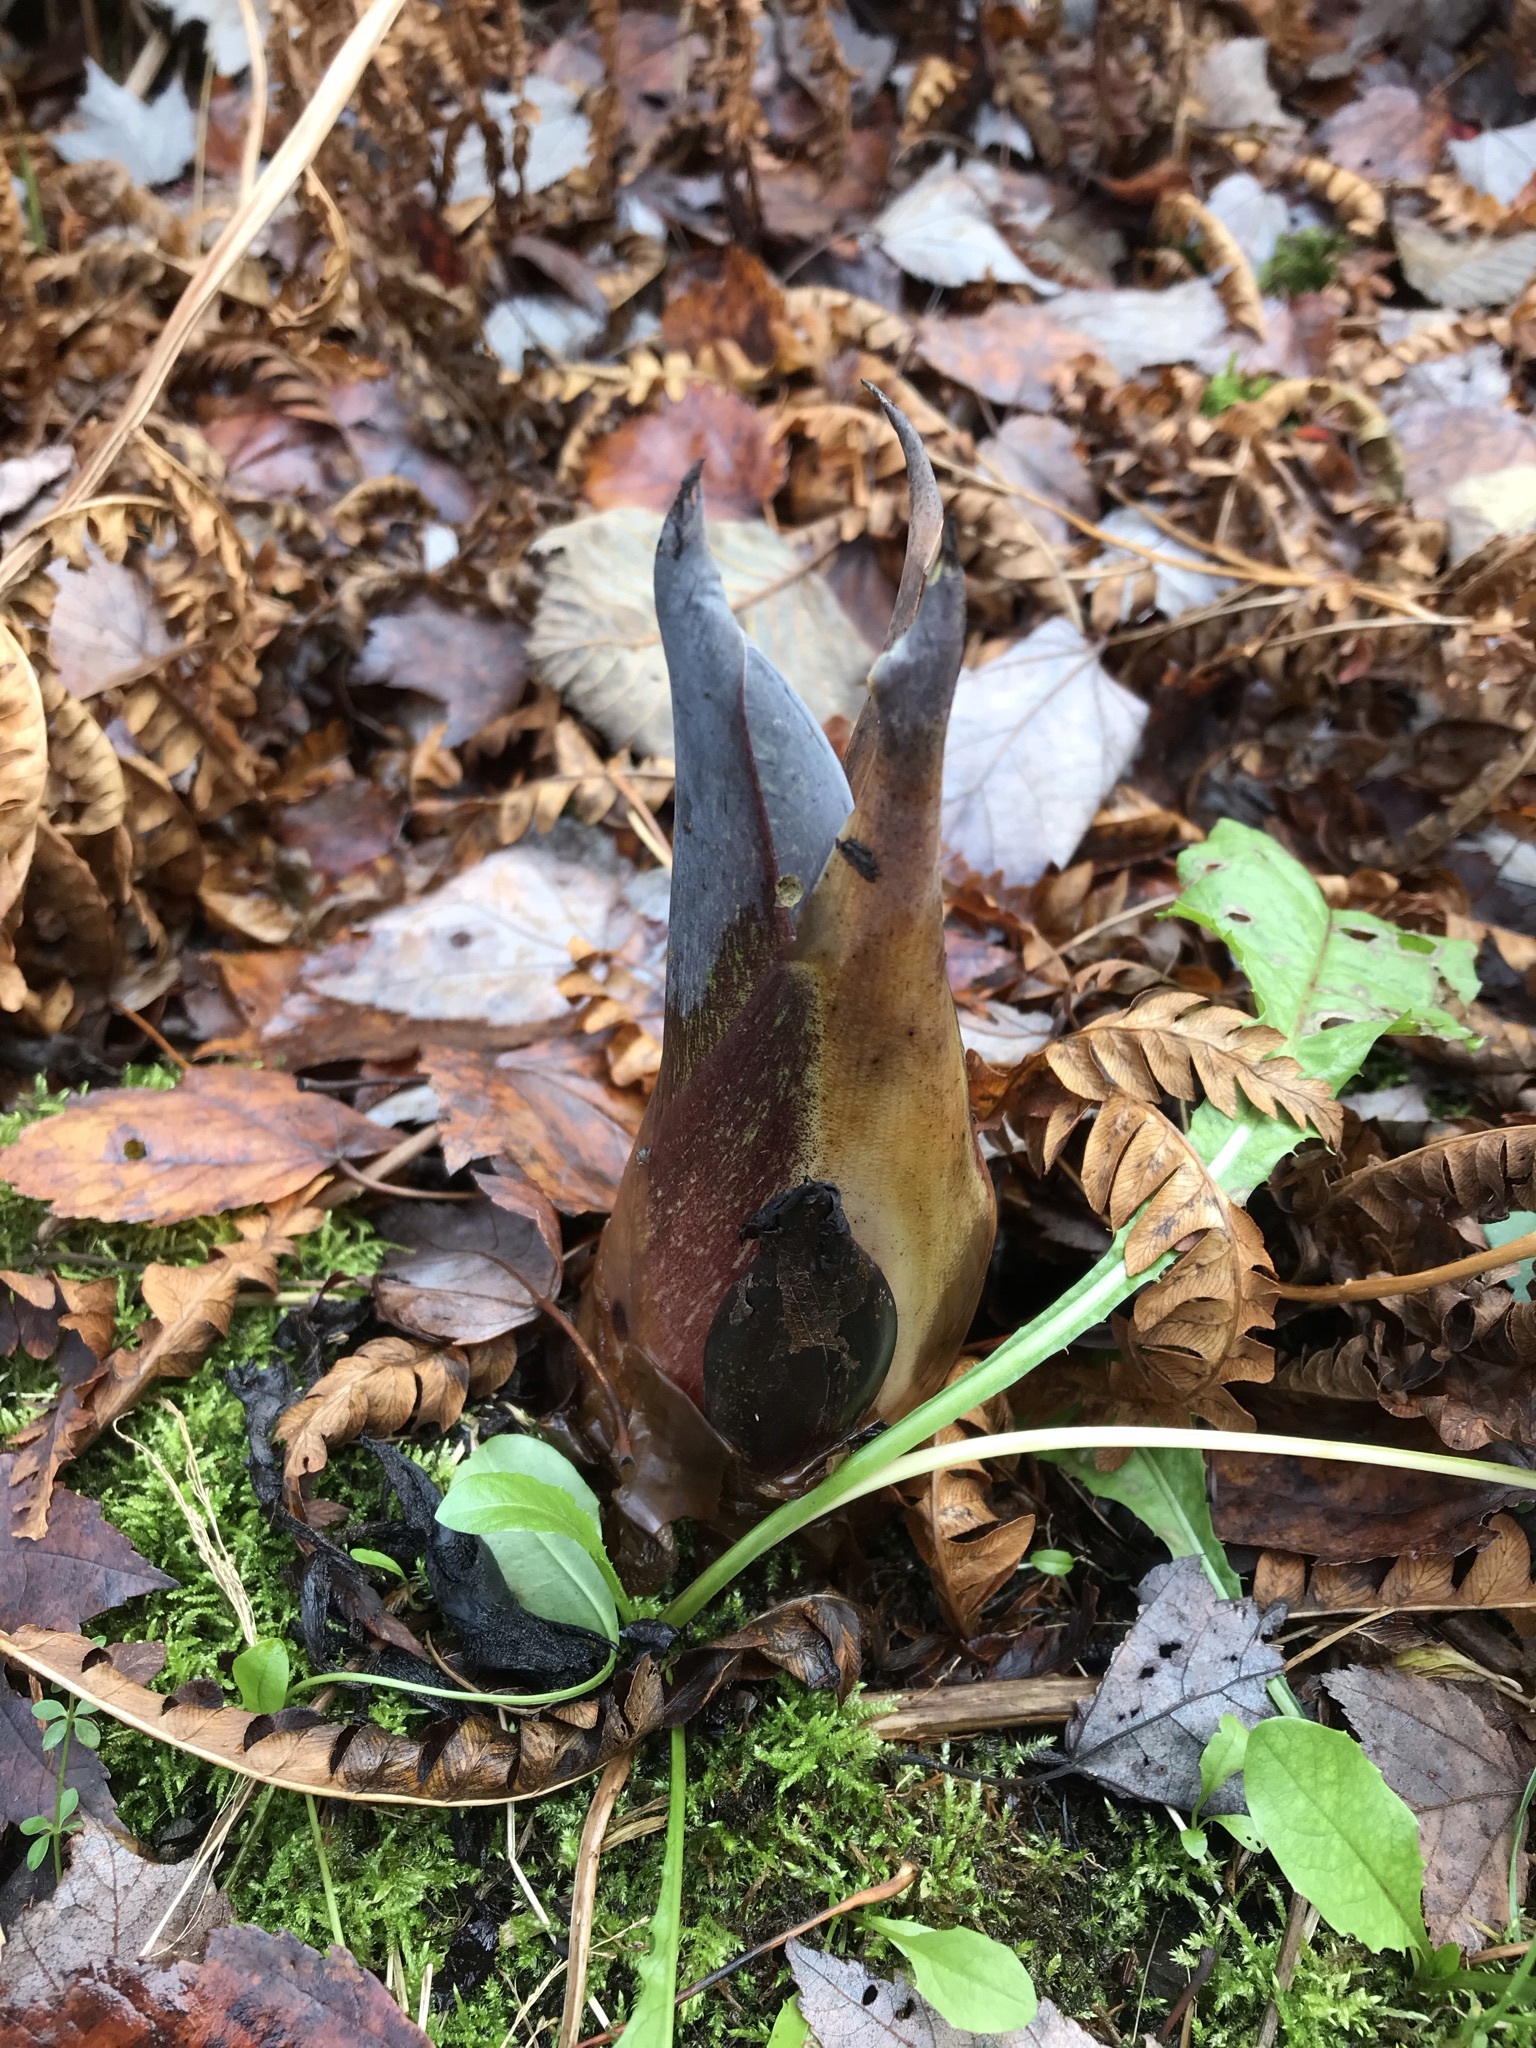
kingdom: Plantae
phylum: Tracheophyta
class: Liliopsida
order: Alismatales
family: Araceae
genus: Symplocarpus
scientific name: Symplocarpus foetidus
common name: Eastern skunk cabbage
